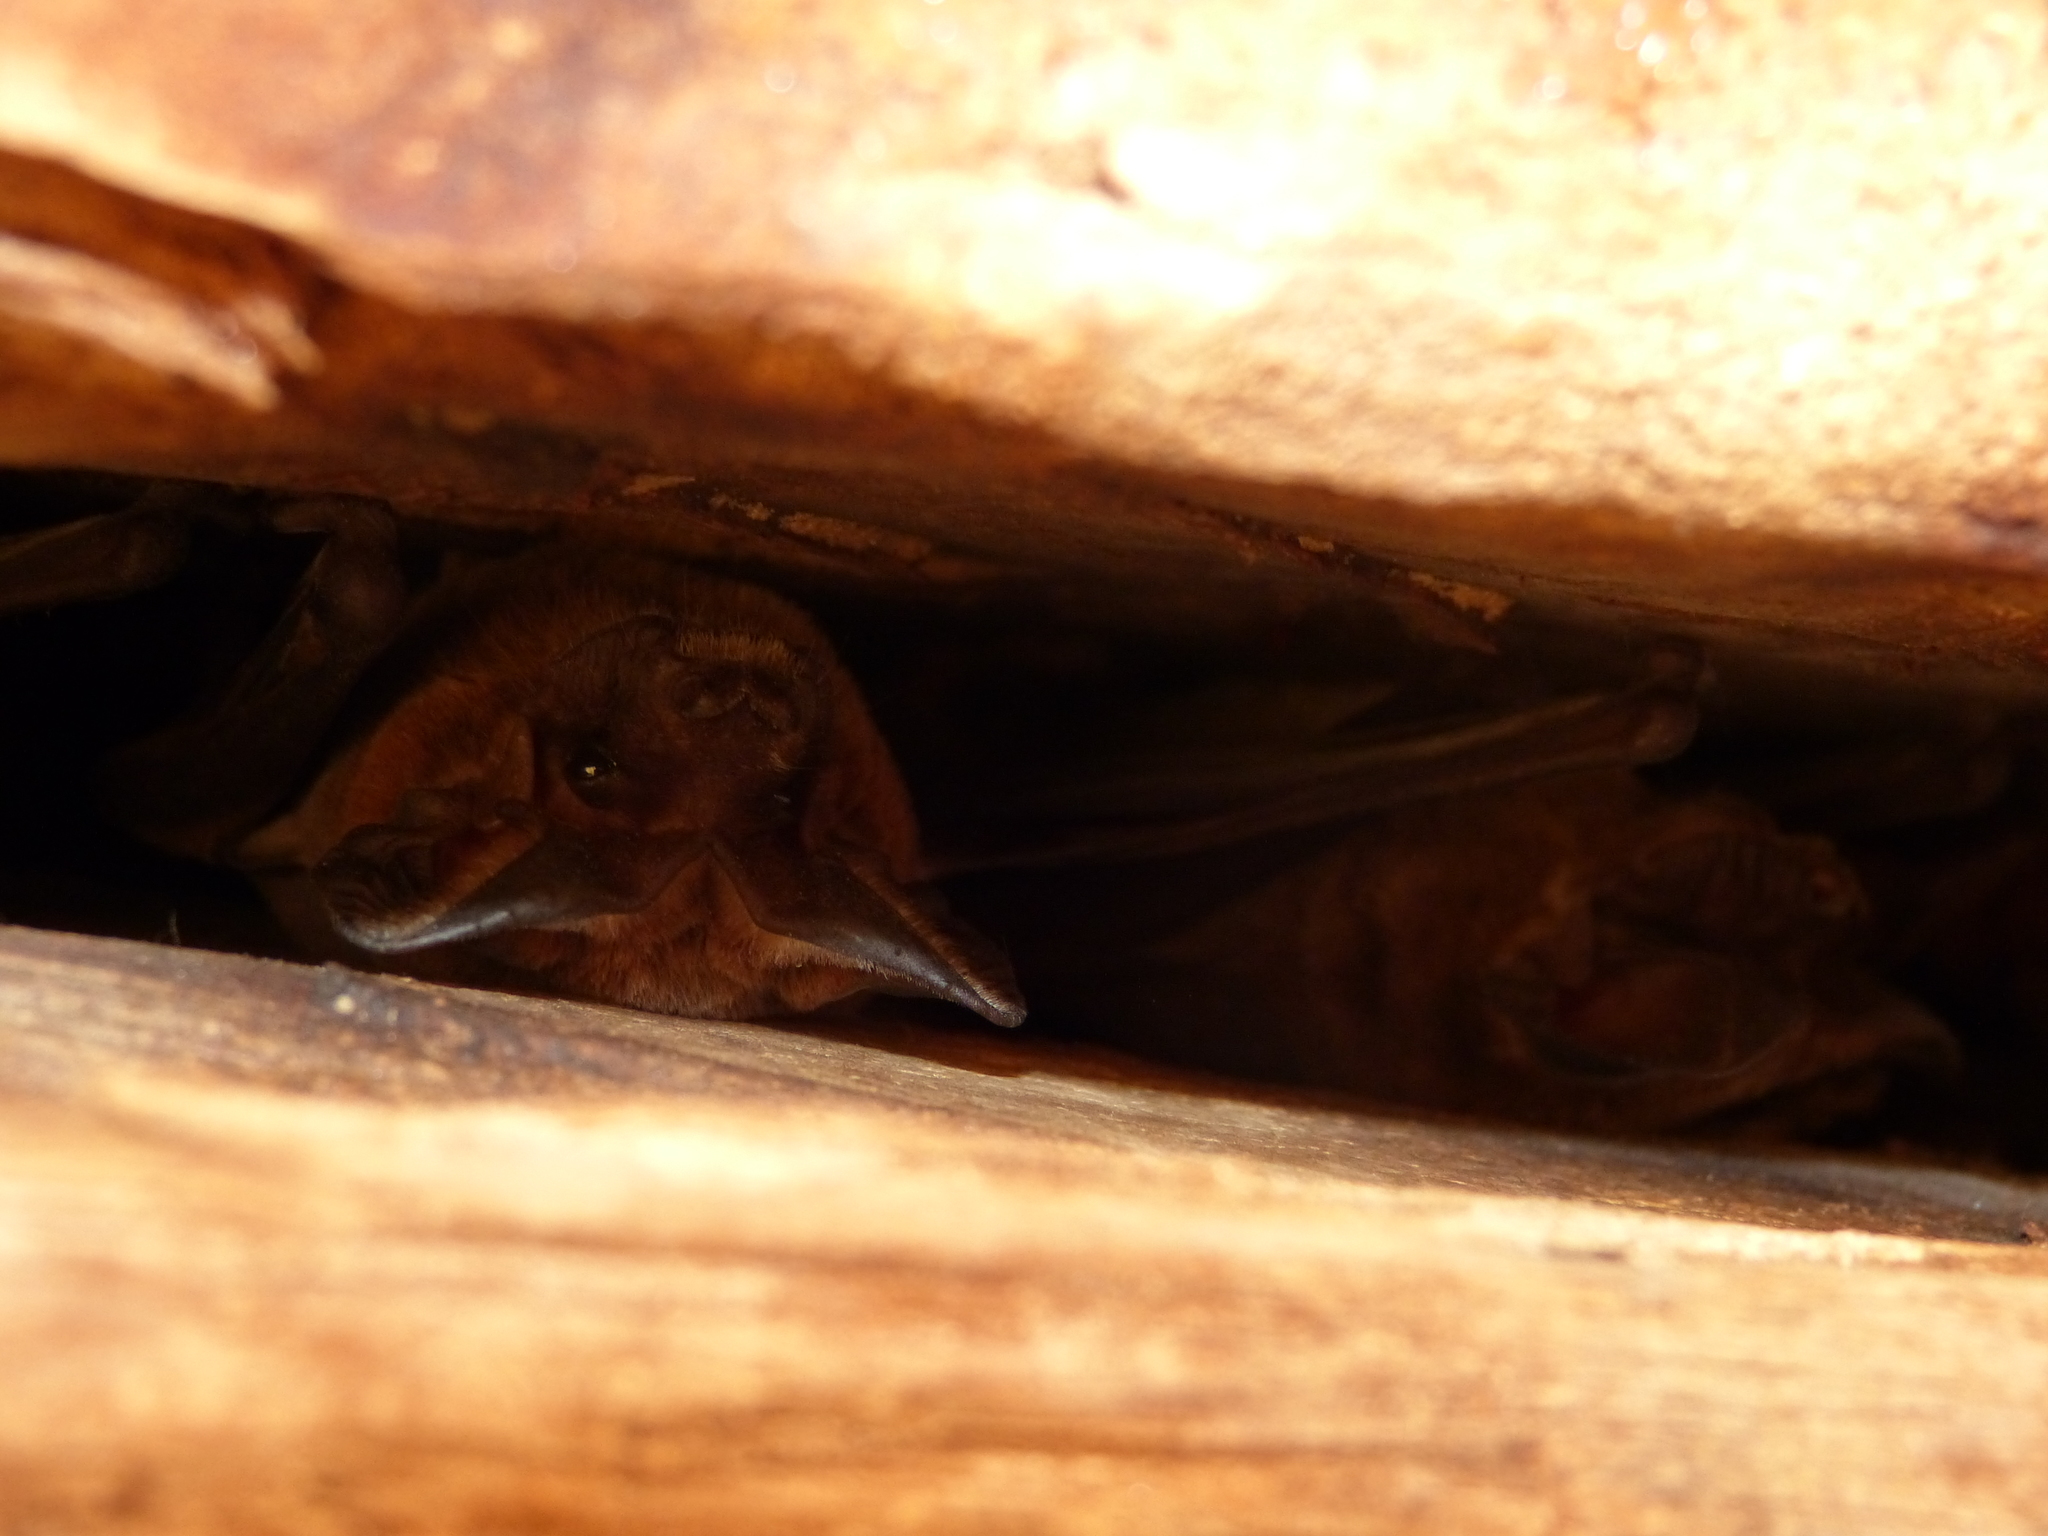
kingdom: Animalia
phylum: Chordata
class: Mammalia
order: Chiroptera
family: Molossidae
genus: Nyctinomops
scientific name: Nyctinomops laticaudatus
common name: Broad-eared free-tailed bat
